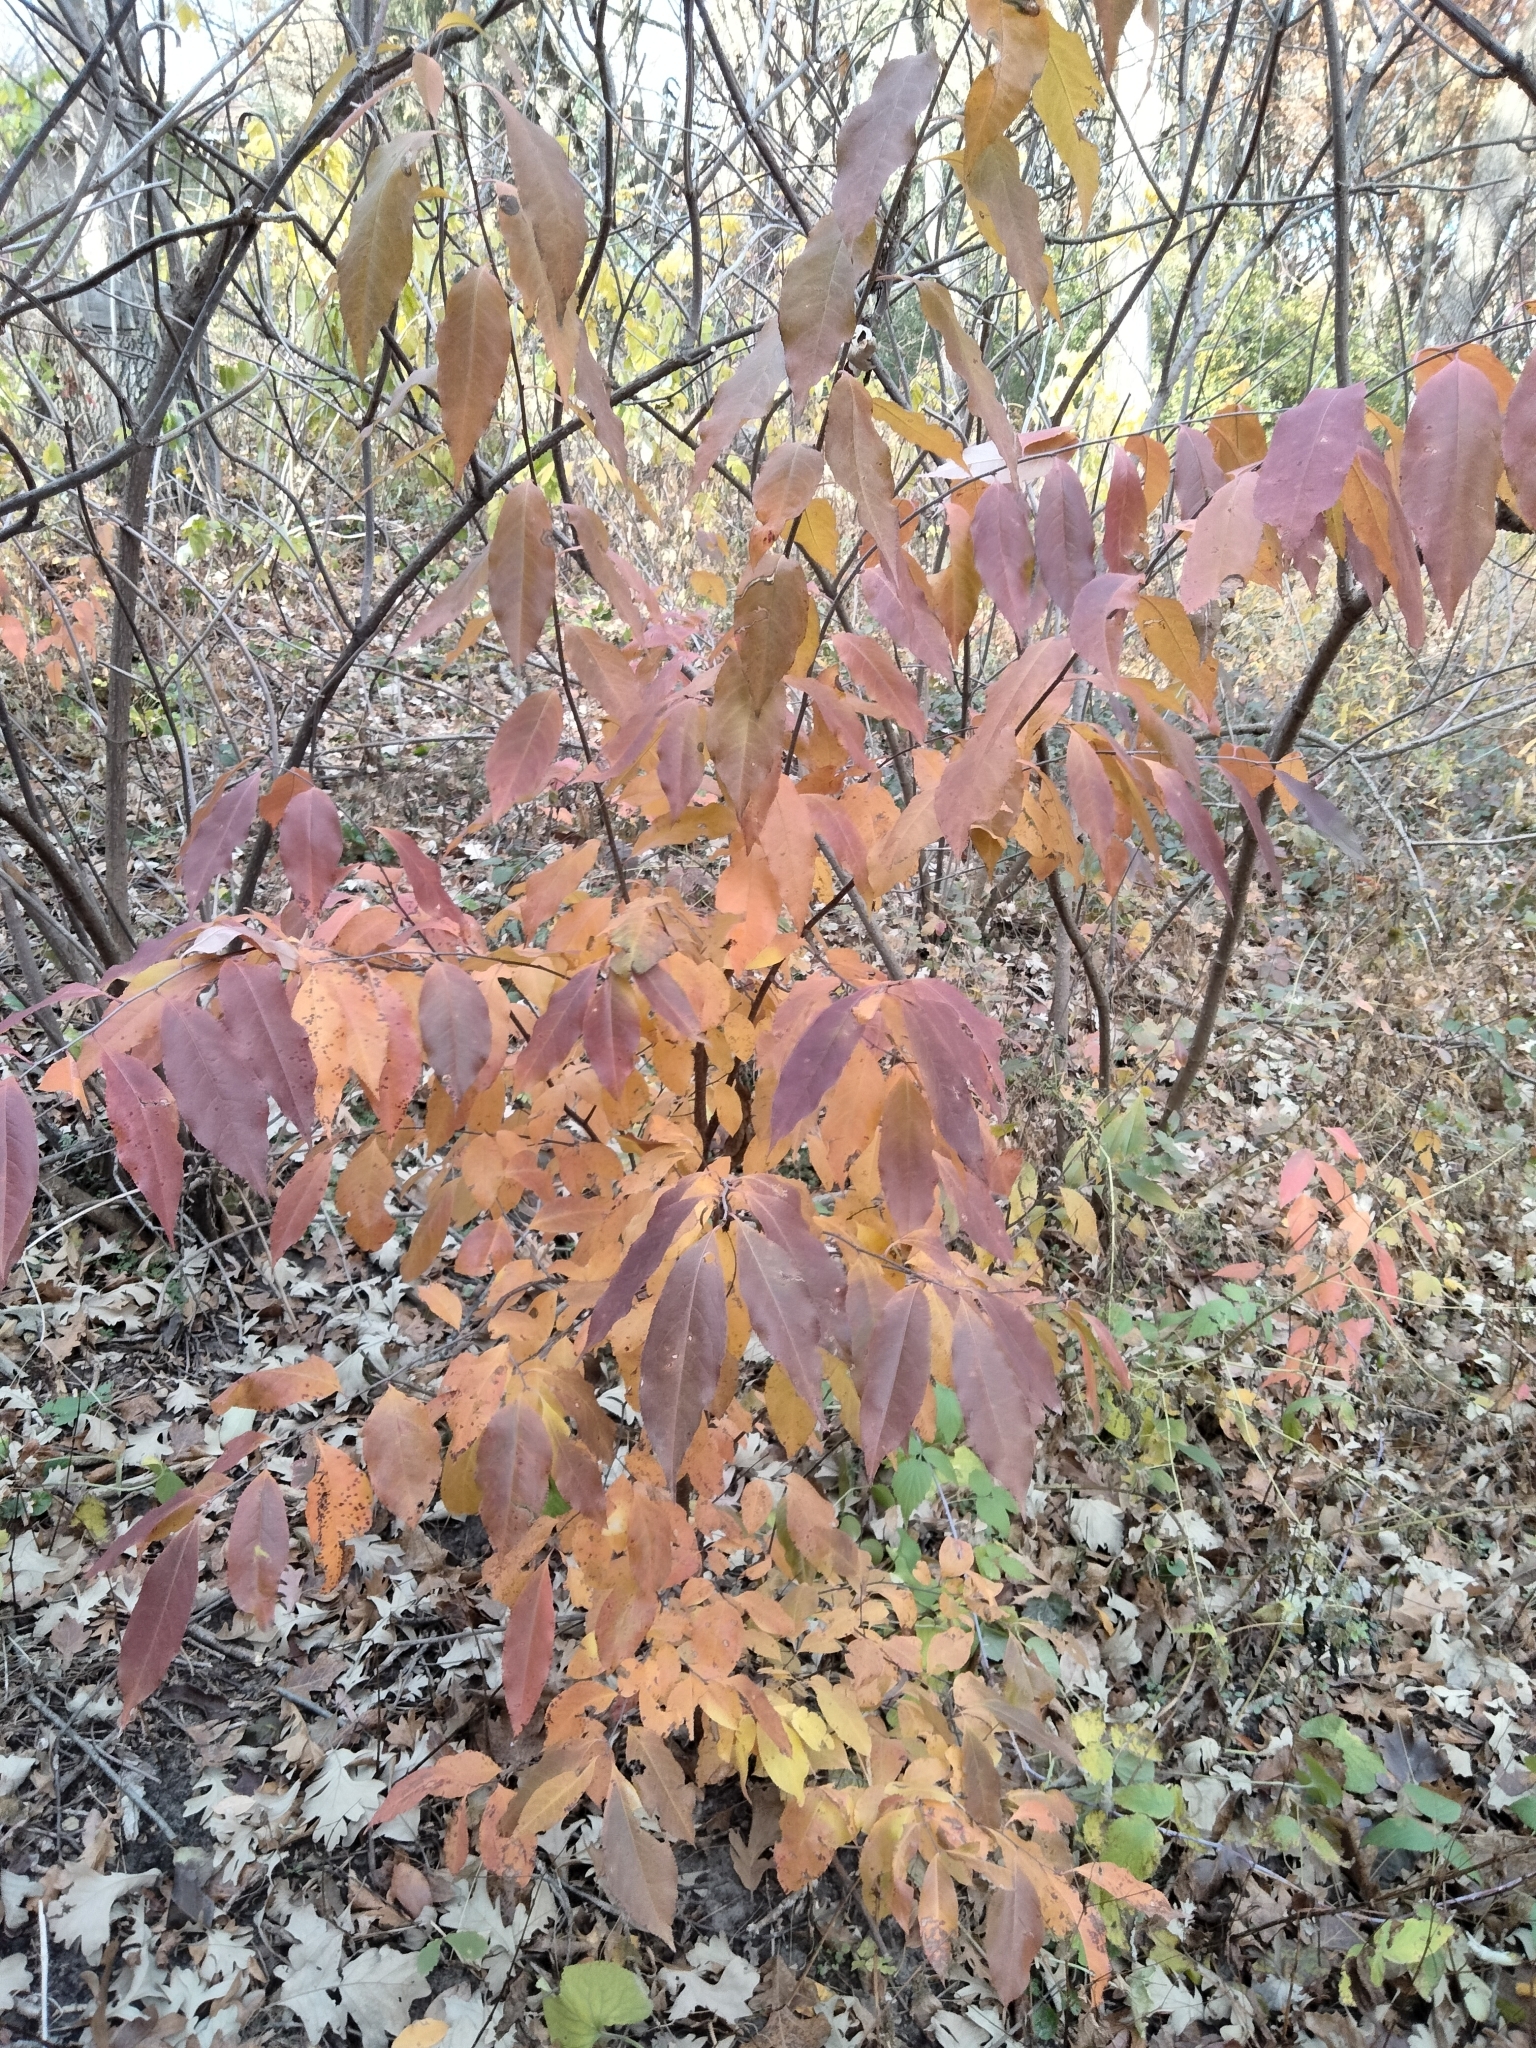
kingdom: Plantae
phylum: Tracheophyta
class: Magnoliopsida
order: Rosales
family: Rosaceae
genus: Prunus
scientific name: Prunus serotina
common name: Black cherry
